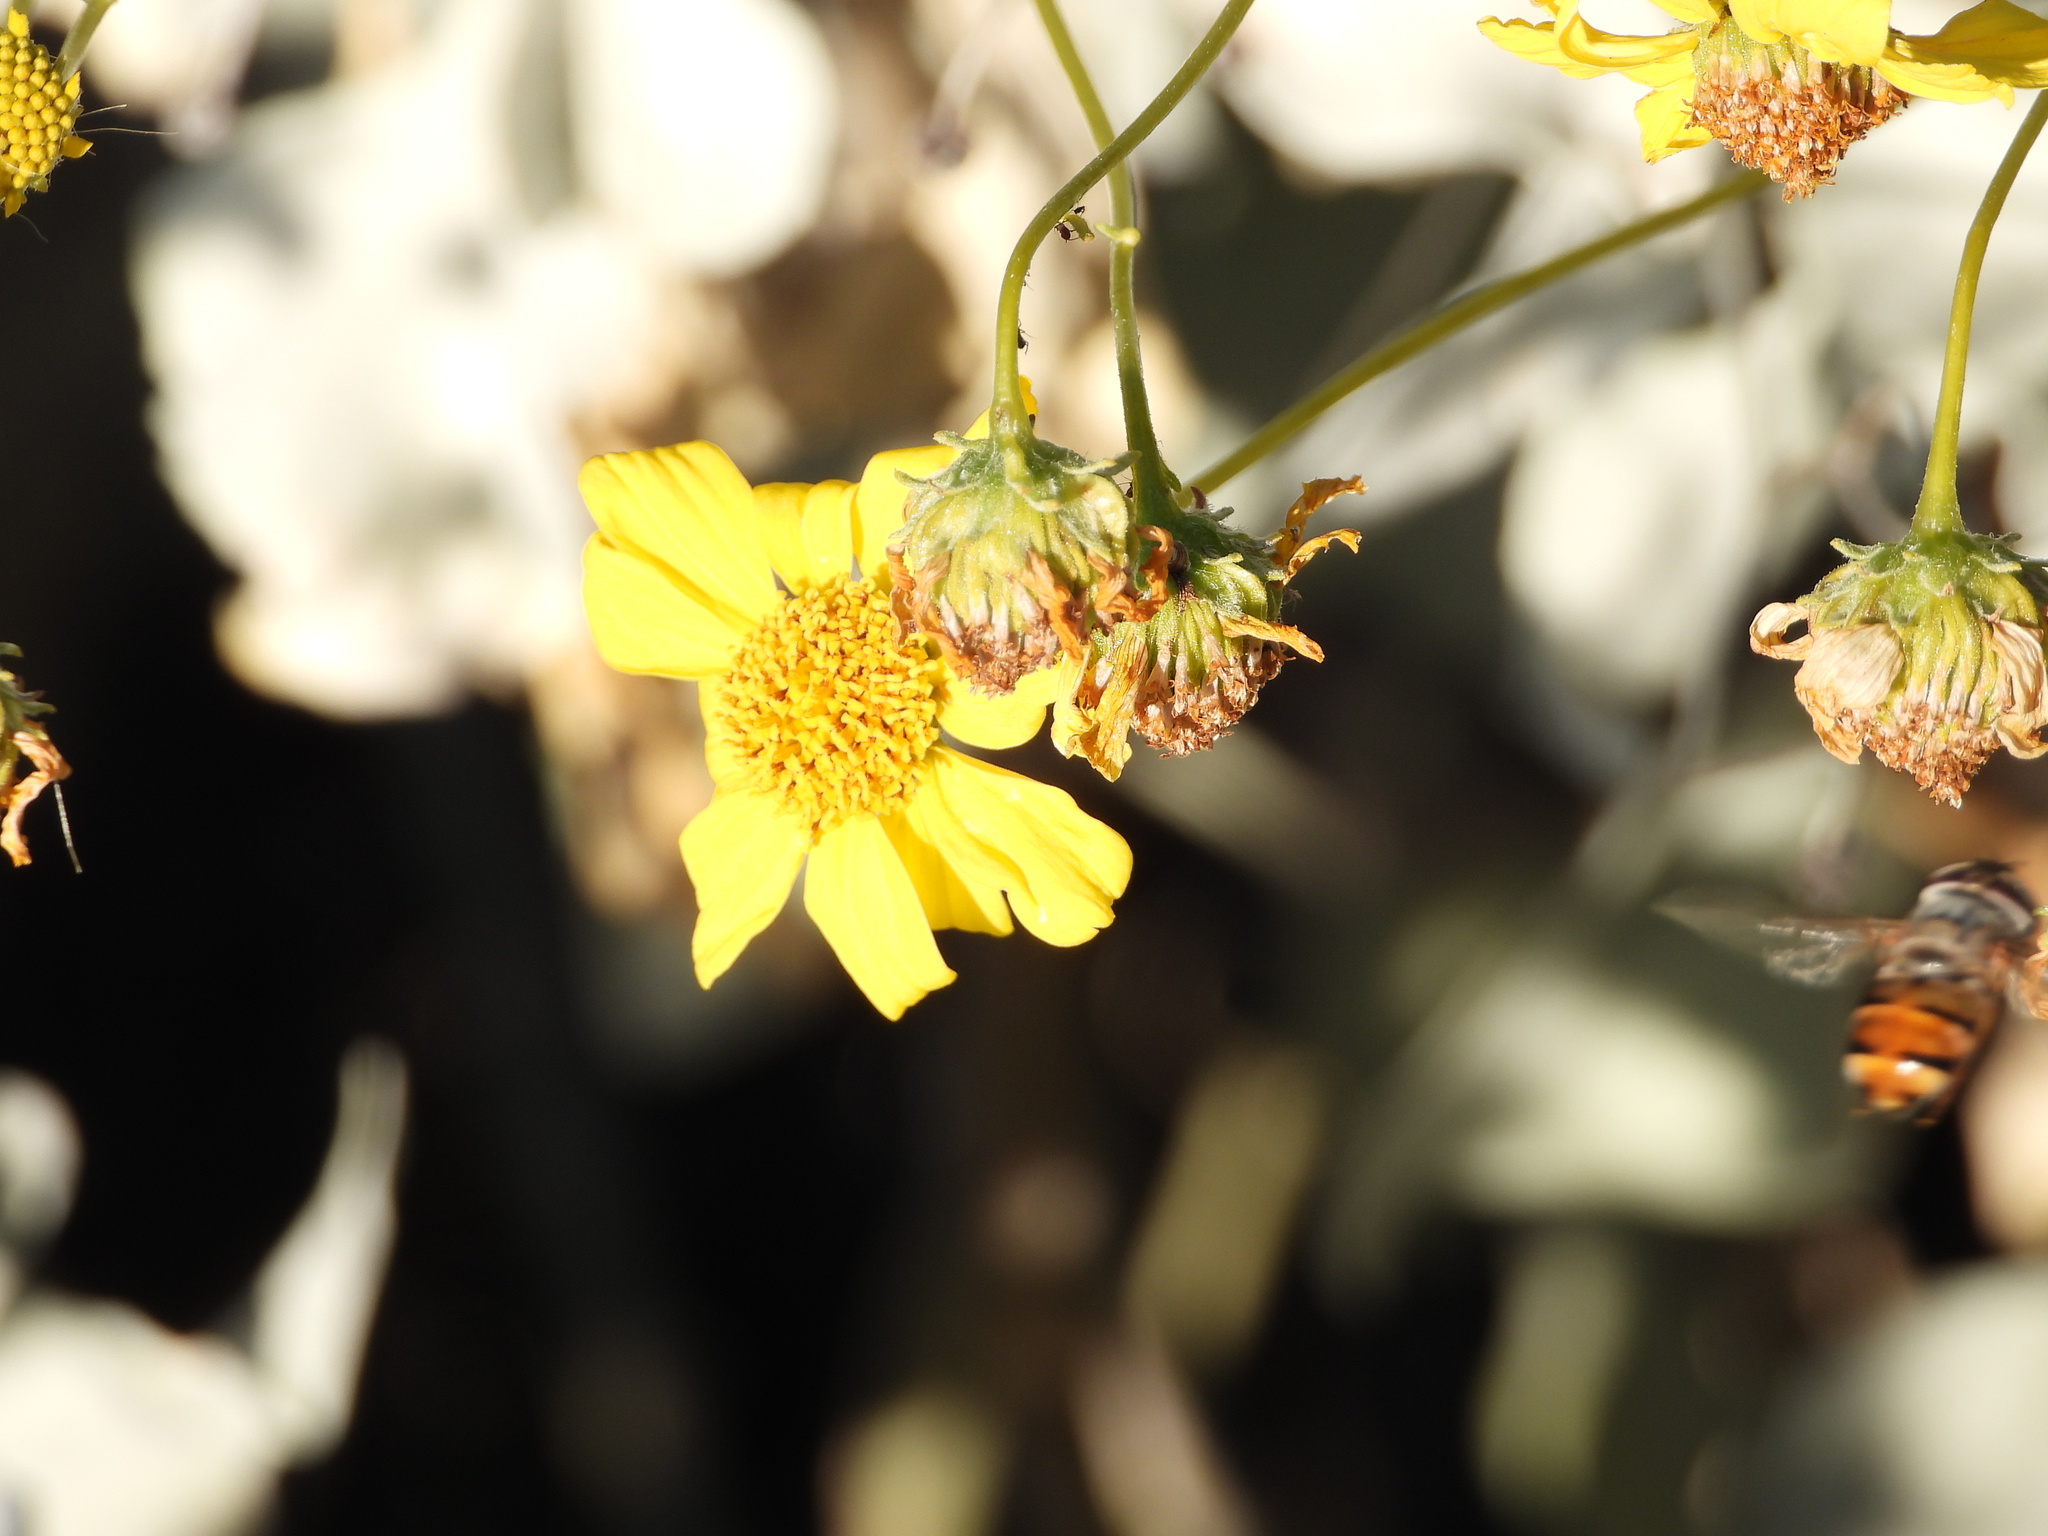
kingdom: Animalia
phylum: Arthropoda
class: Insecta
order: Diptera
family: Syrphidae
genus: Copestylum
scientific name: Copestylum isabellina
